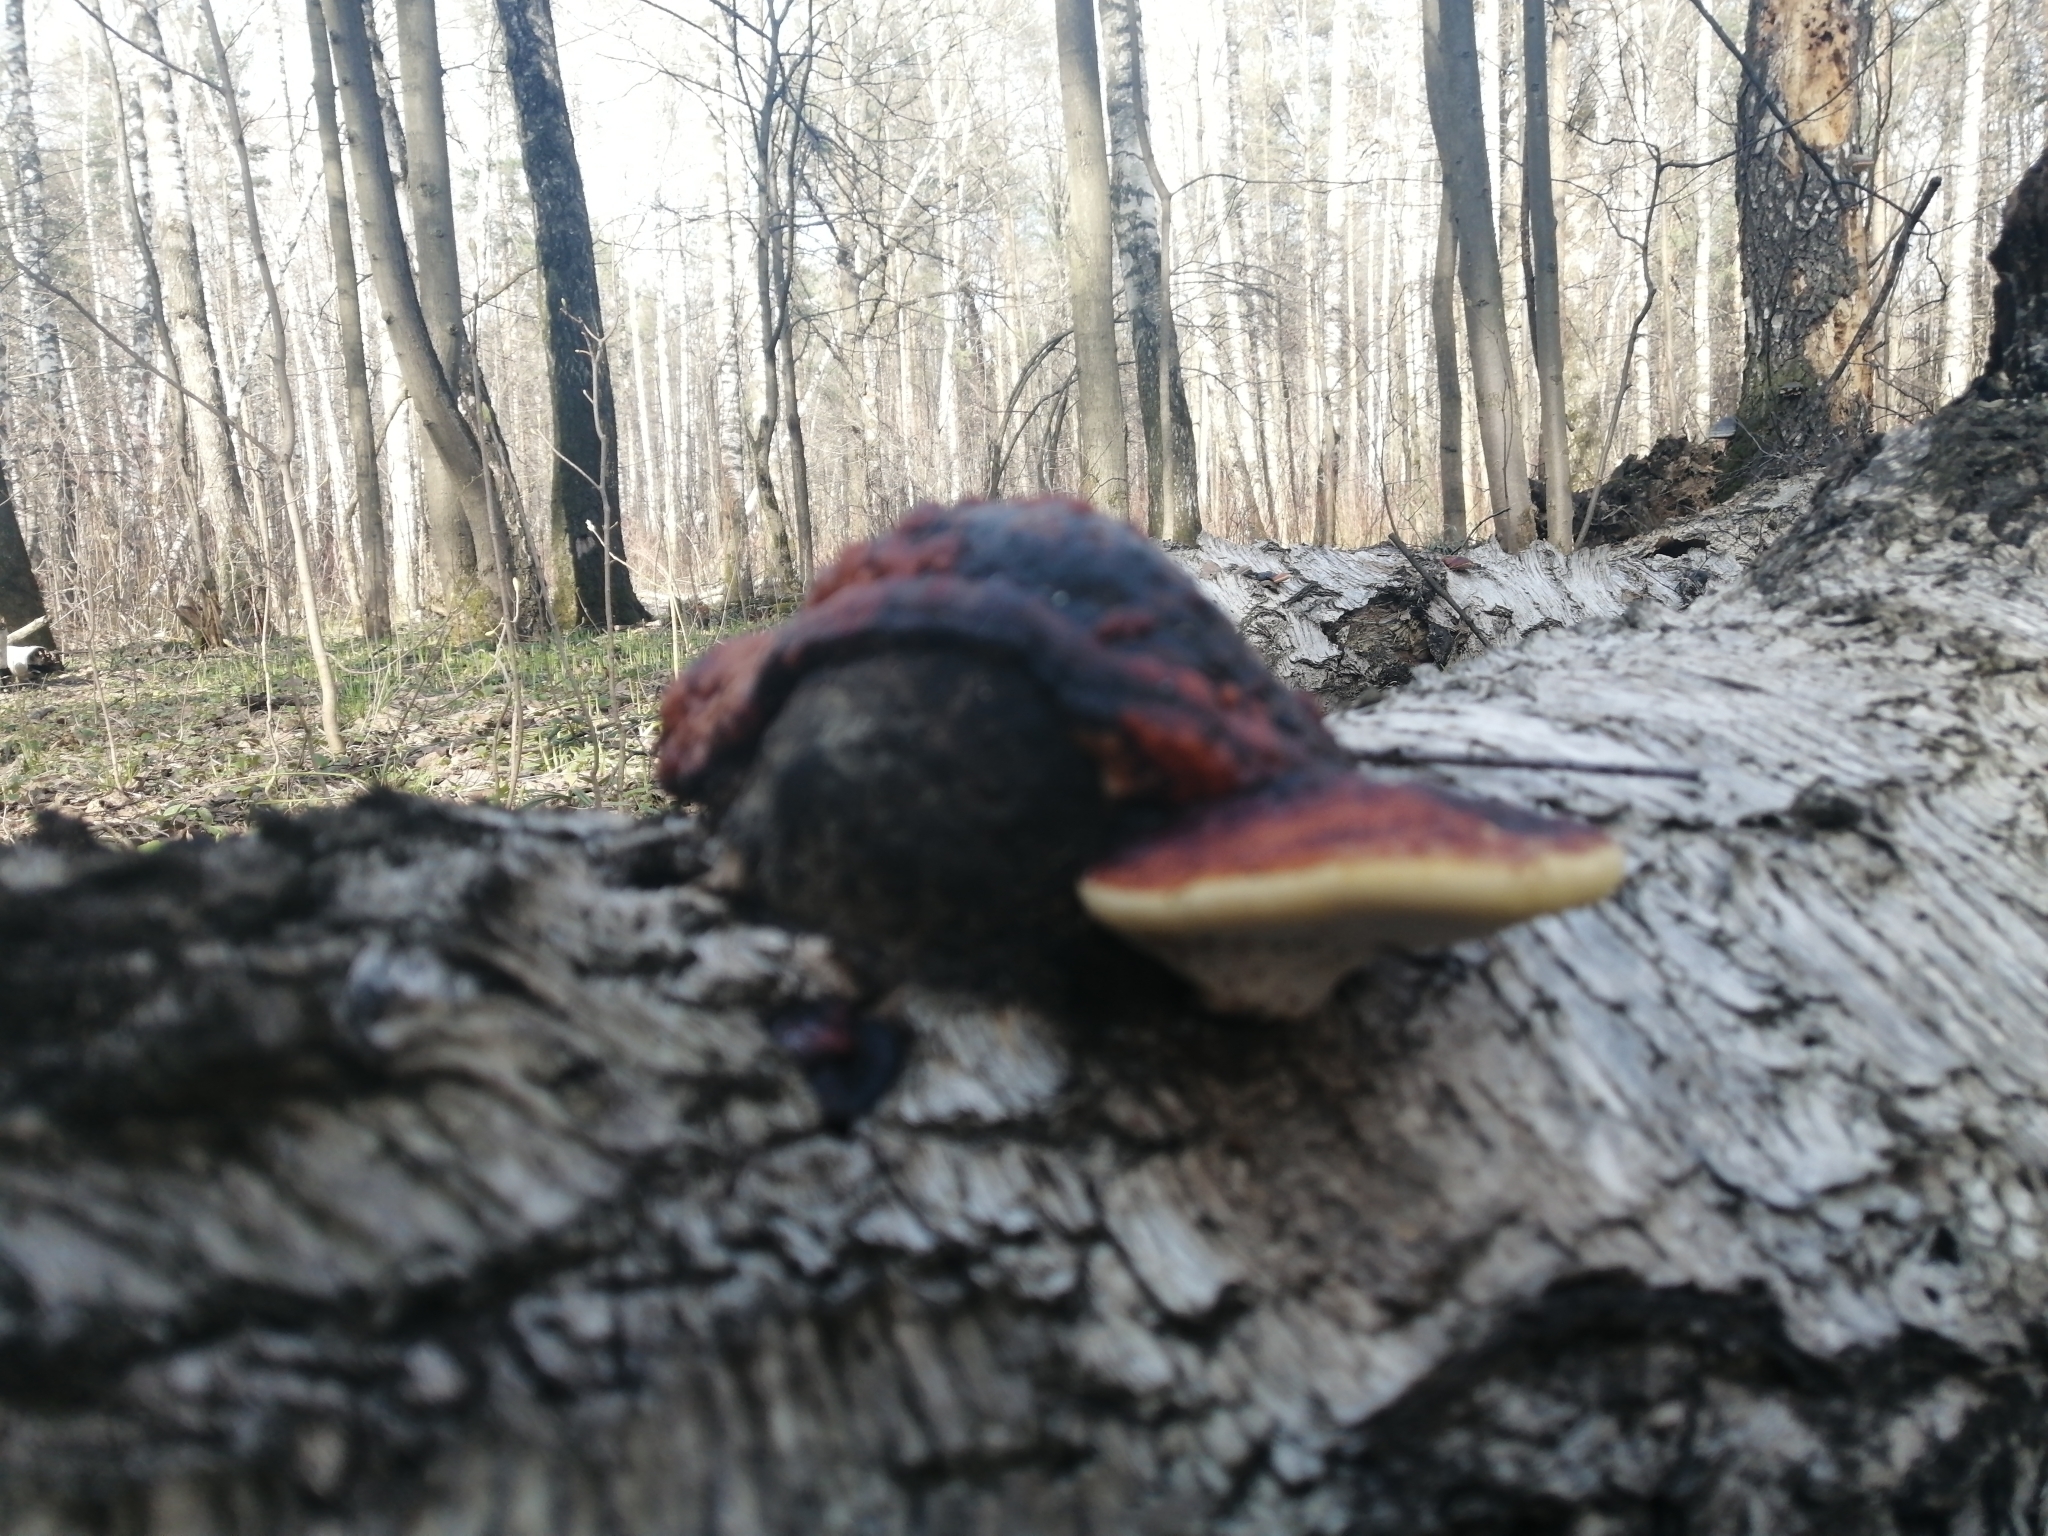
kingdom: Fungi
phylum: Basidiomycota
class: Agaricomycetes
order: Polyporales
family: Fomitopsidaceae
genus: Fomitopsis
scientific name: Fomitopsis pinicola
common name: Red-belted bracket
